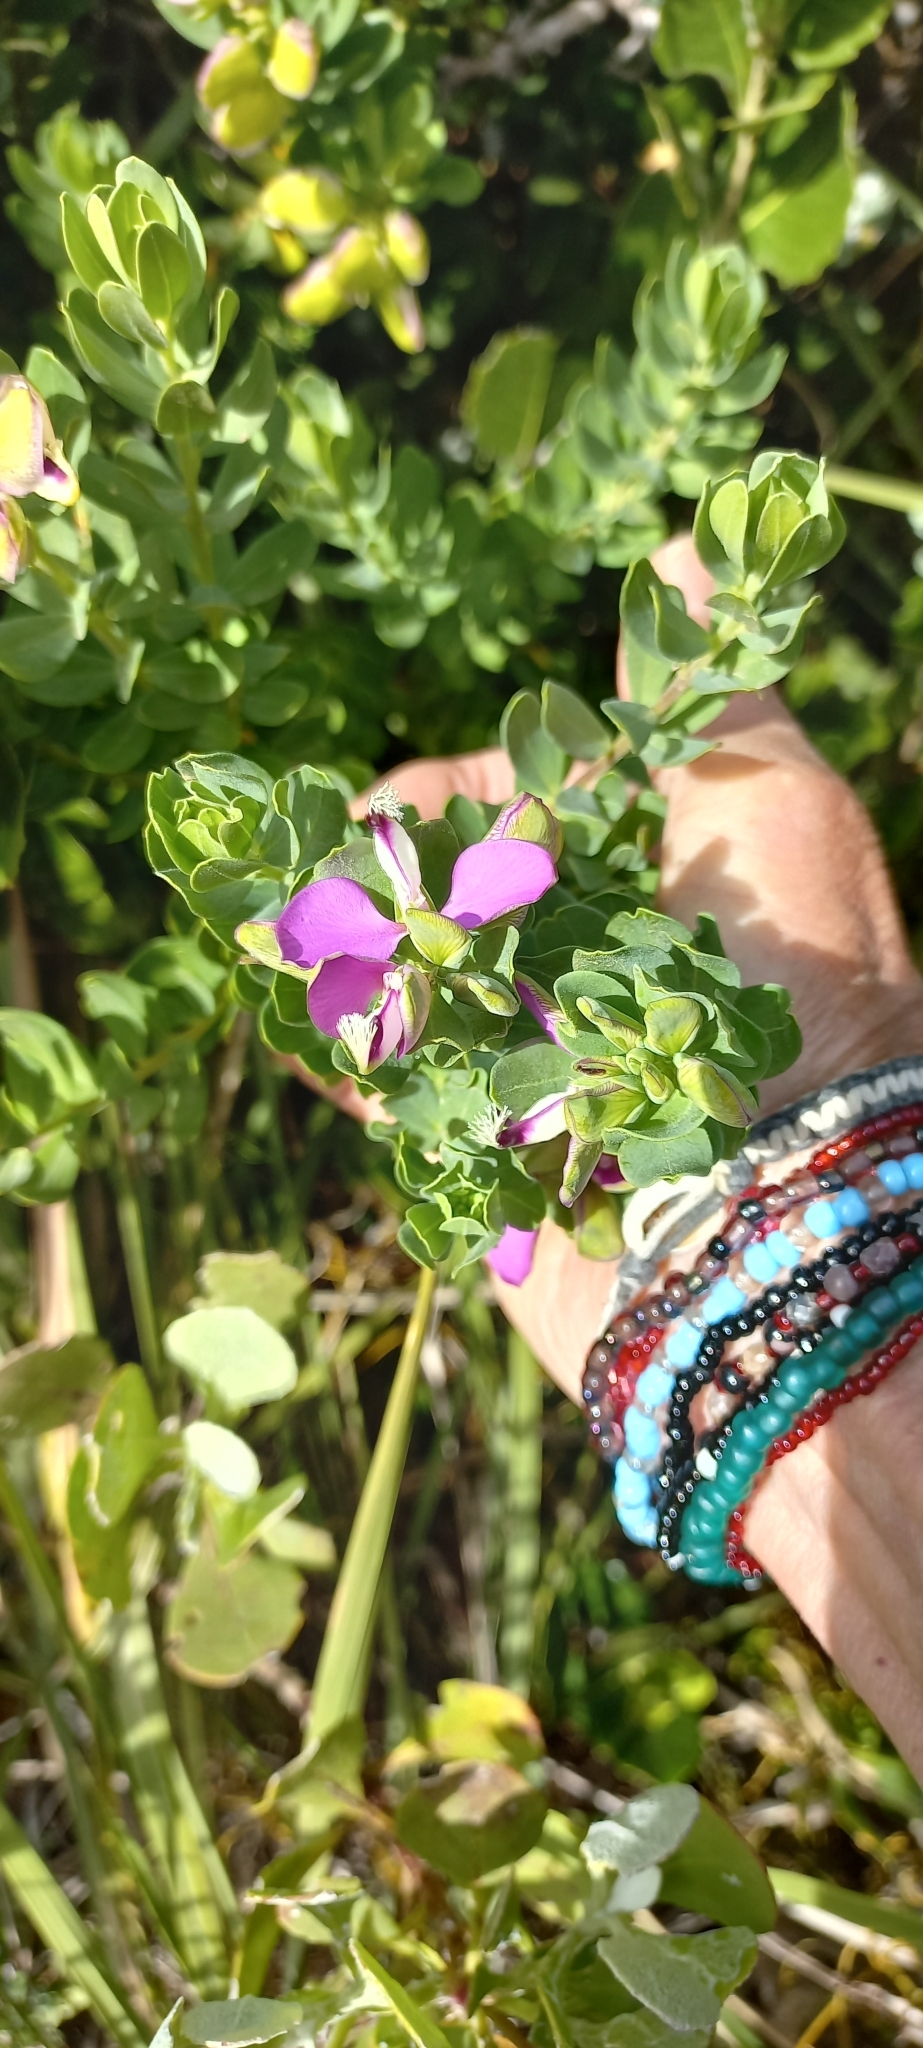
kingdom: Plantae
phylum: Tracheophyta
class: Magnoliopsida
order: Fabales
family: Polygalaceae
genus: Polygala
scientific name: Polygala myrtifolia
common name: Myrtle-leaf milkwort
